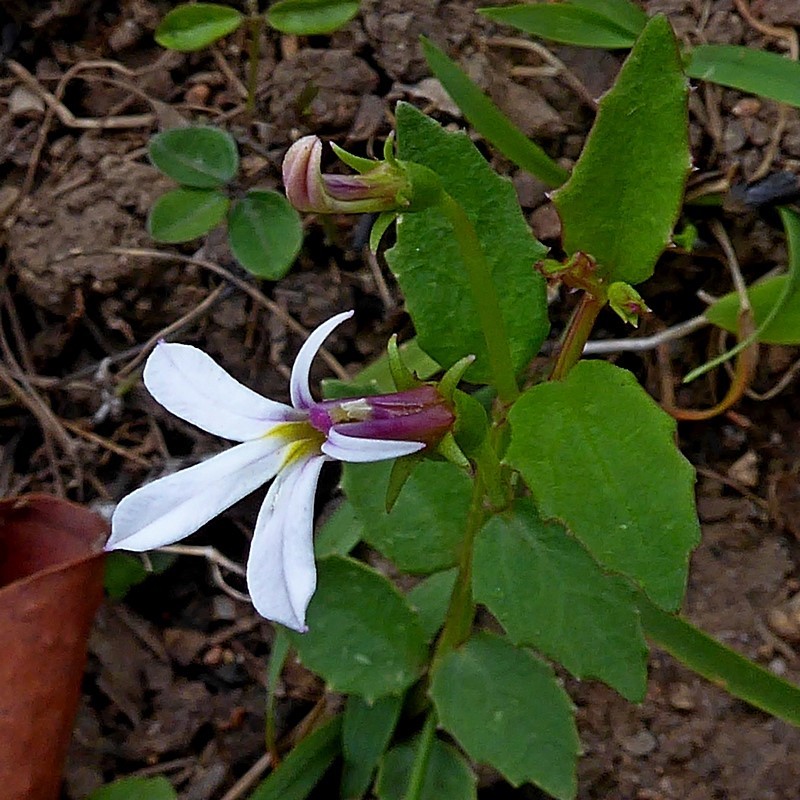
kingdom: Plantae
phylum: Tracheophyta
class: Magnoliopsida
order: Asterales
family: Campanulaceae
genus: Lobelia
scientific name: Lobelia purpurascens
